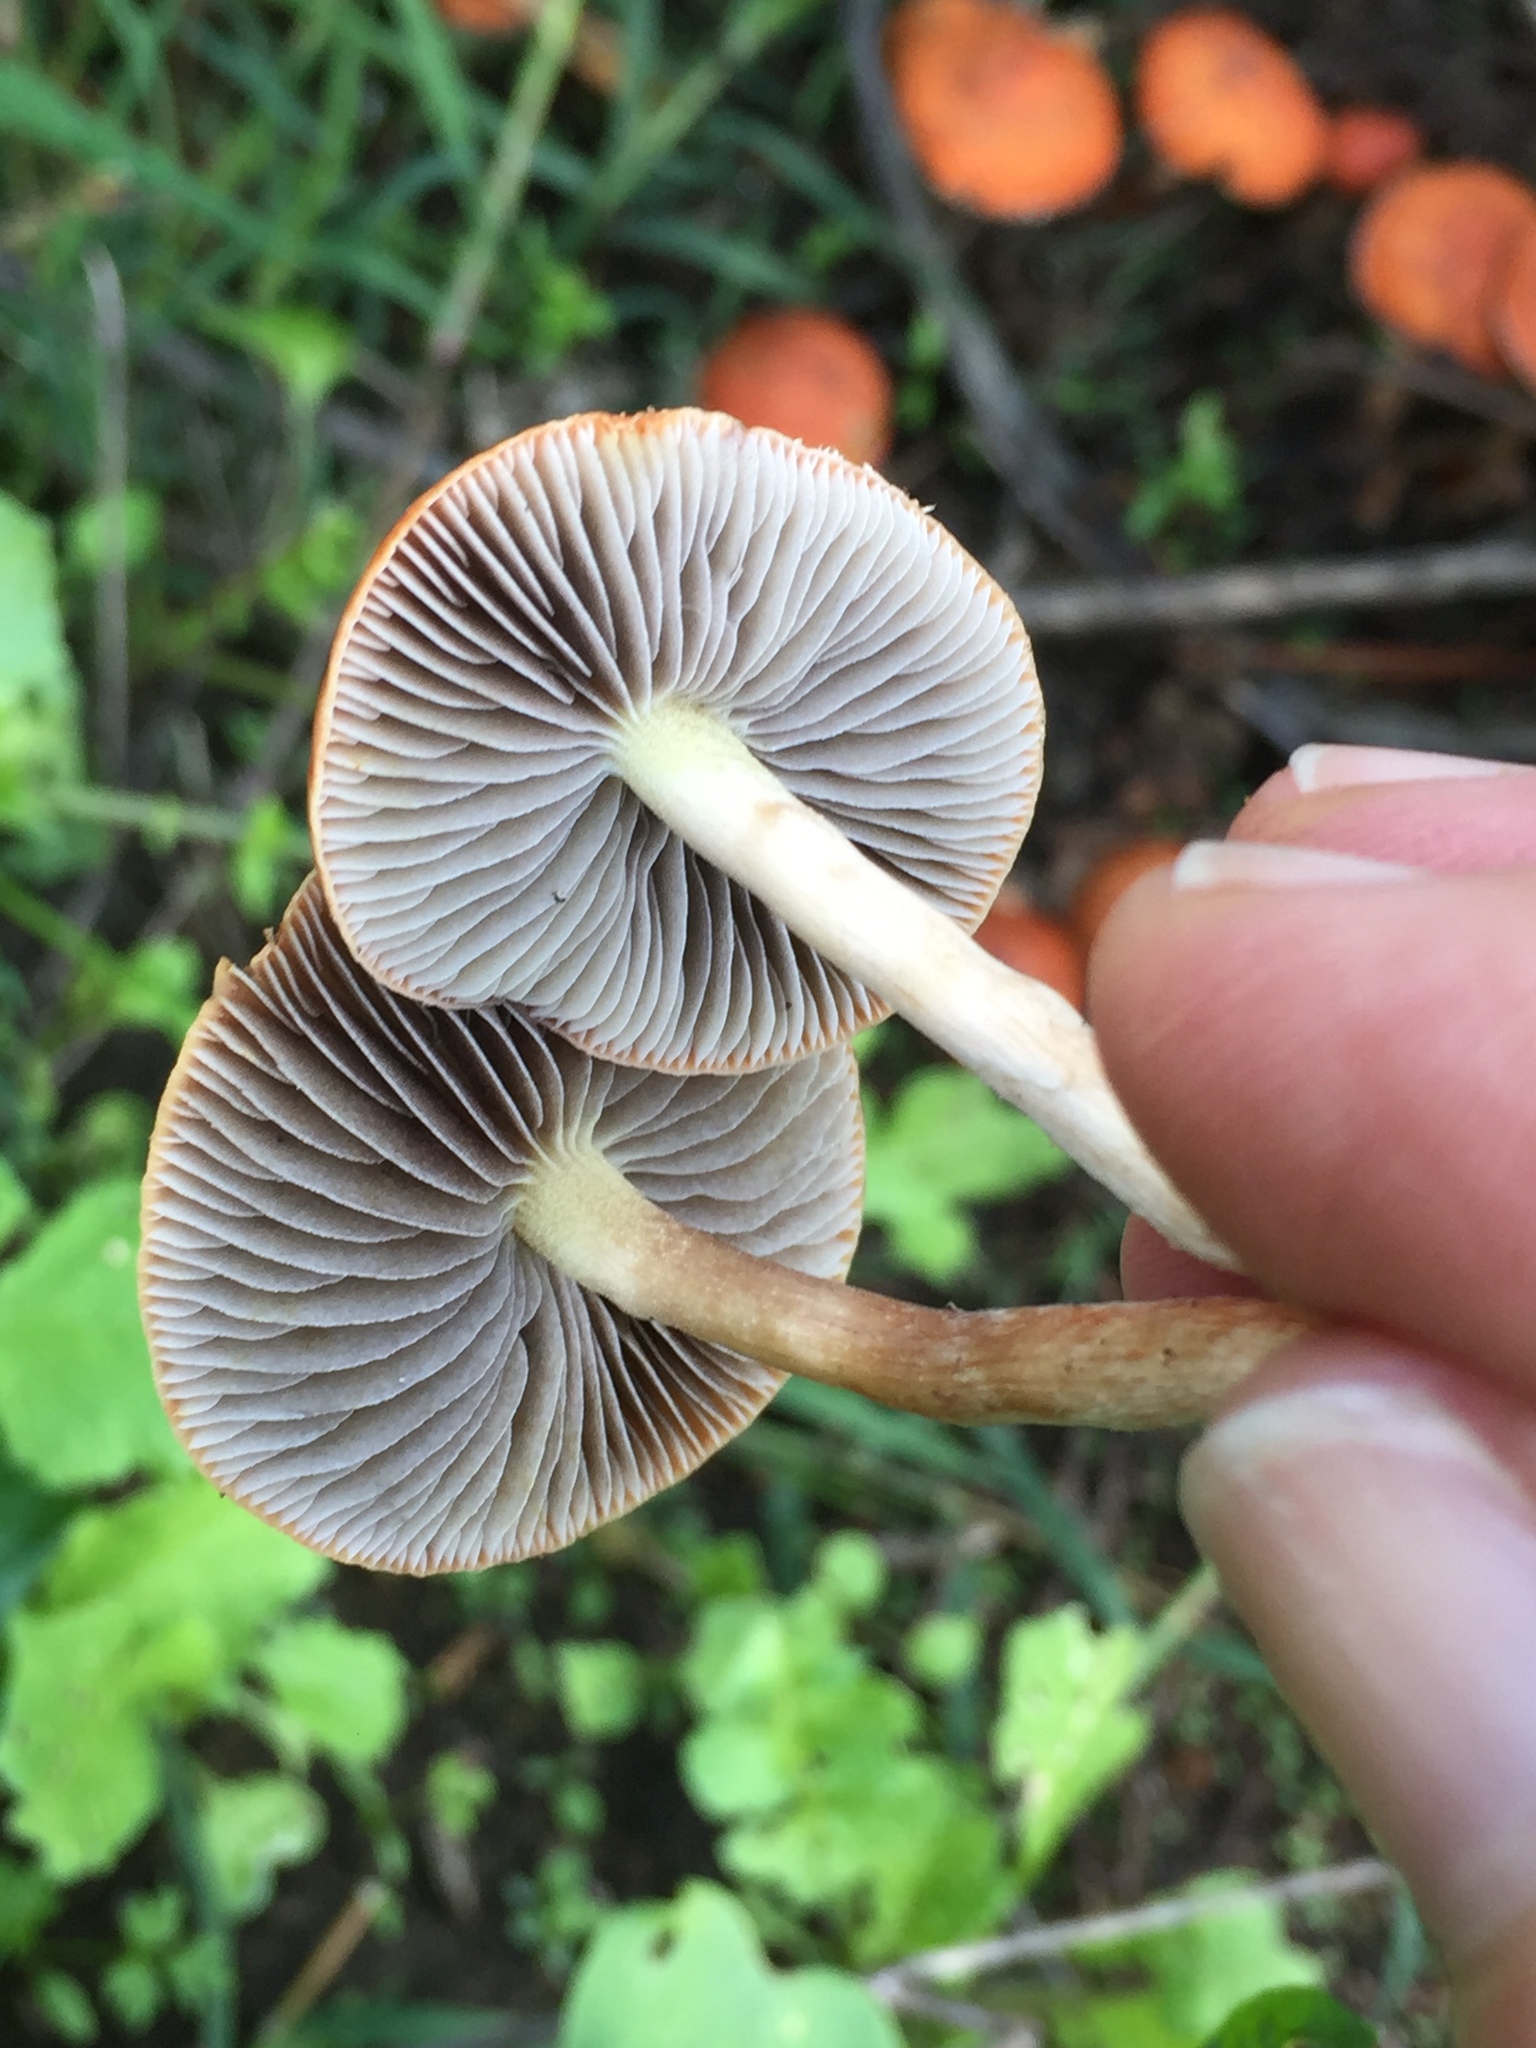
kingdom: Fungi
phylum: Basidiomycota
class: Agaricomycetes
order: Agaricales
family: Strophariaceae
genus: Leratiomyces
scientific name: Leratiomyces ceres
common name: Redlead roundhead
